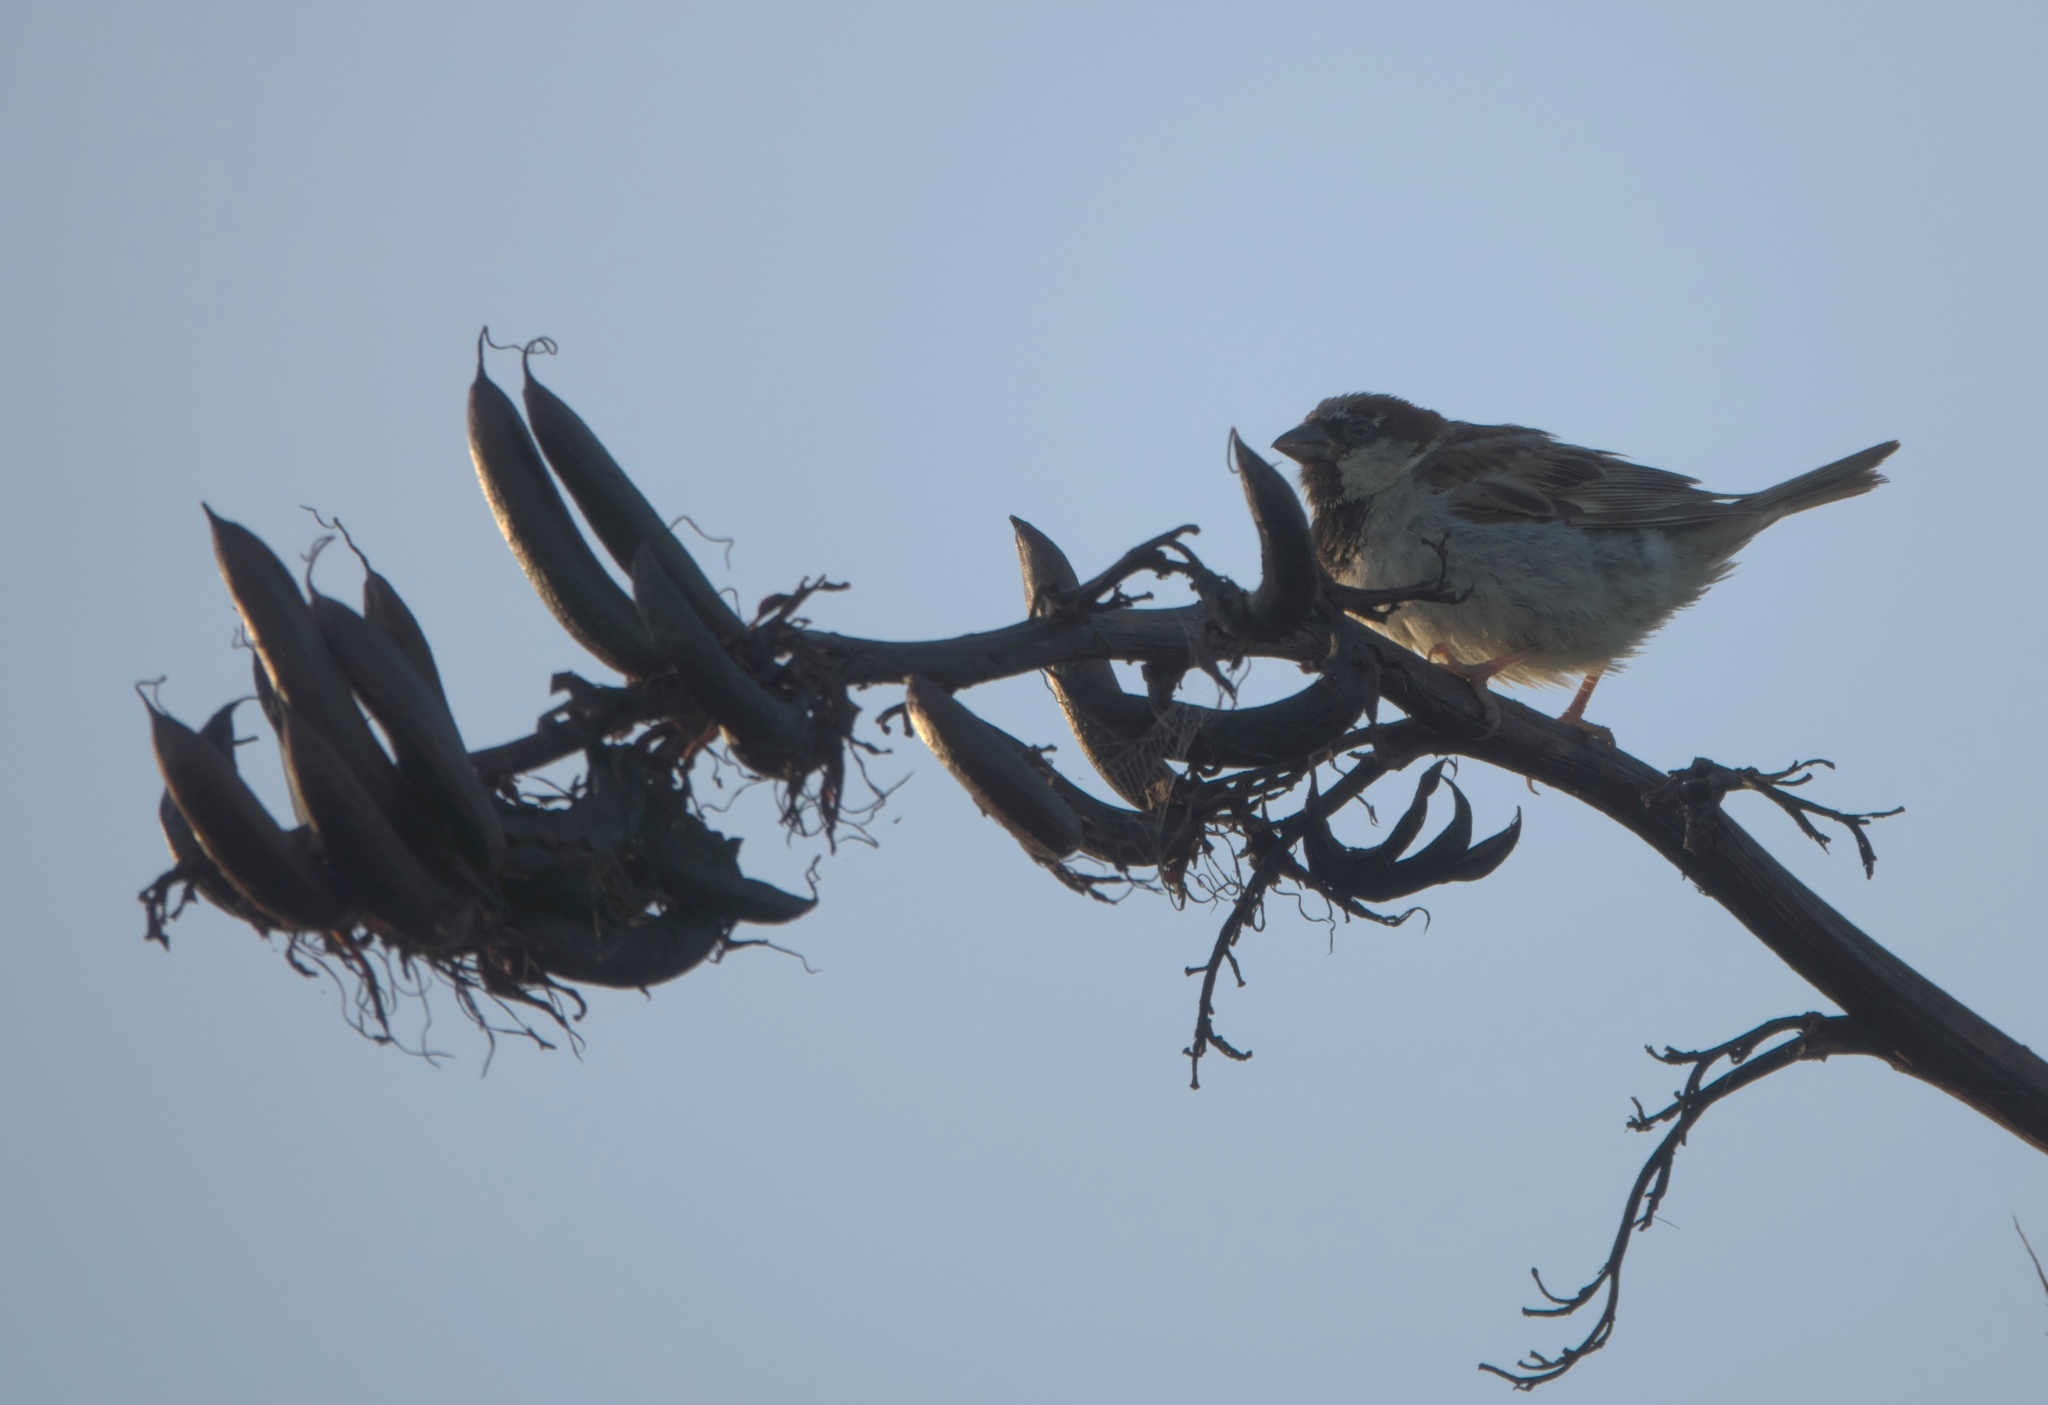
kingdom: Animalia
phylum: Chordata
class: Aves
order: Passeriformes
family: Passeridae
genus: Passer
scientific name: Passer domesticus
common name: House sparrow
